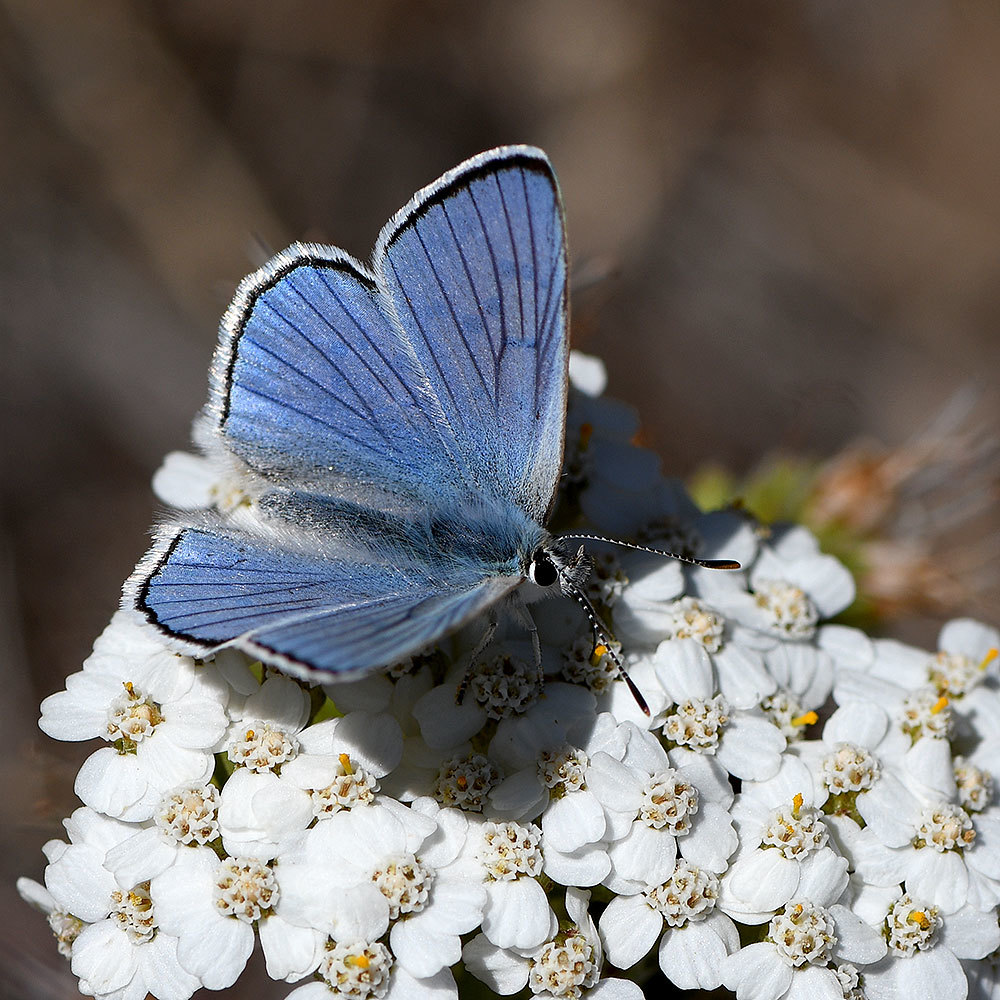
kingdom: Animalia
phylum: Arthropoda
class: Insecta
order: Lepidoptera
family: Lycaenidae
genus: Tharsalea
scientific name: Tharsalea heteronea
